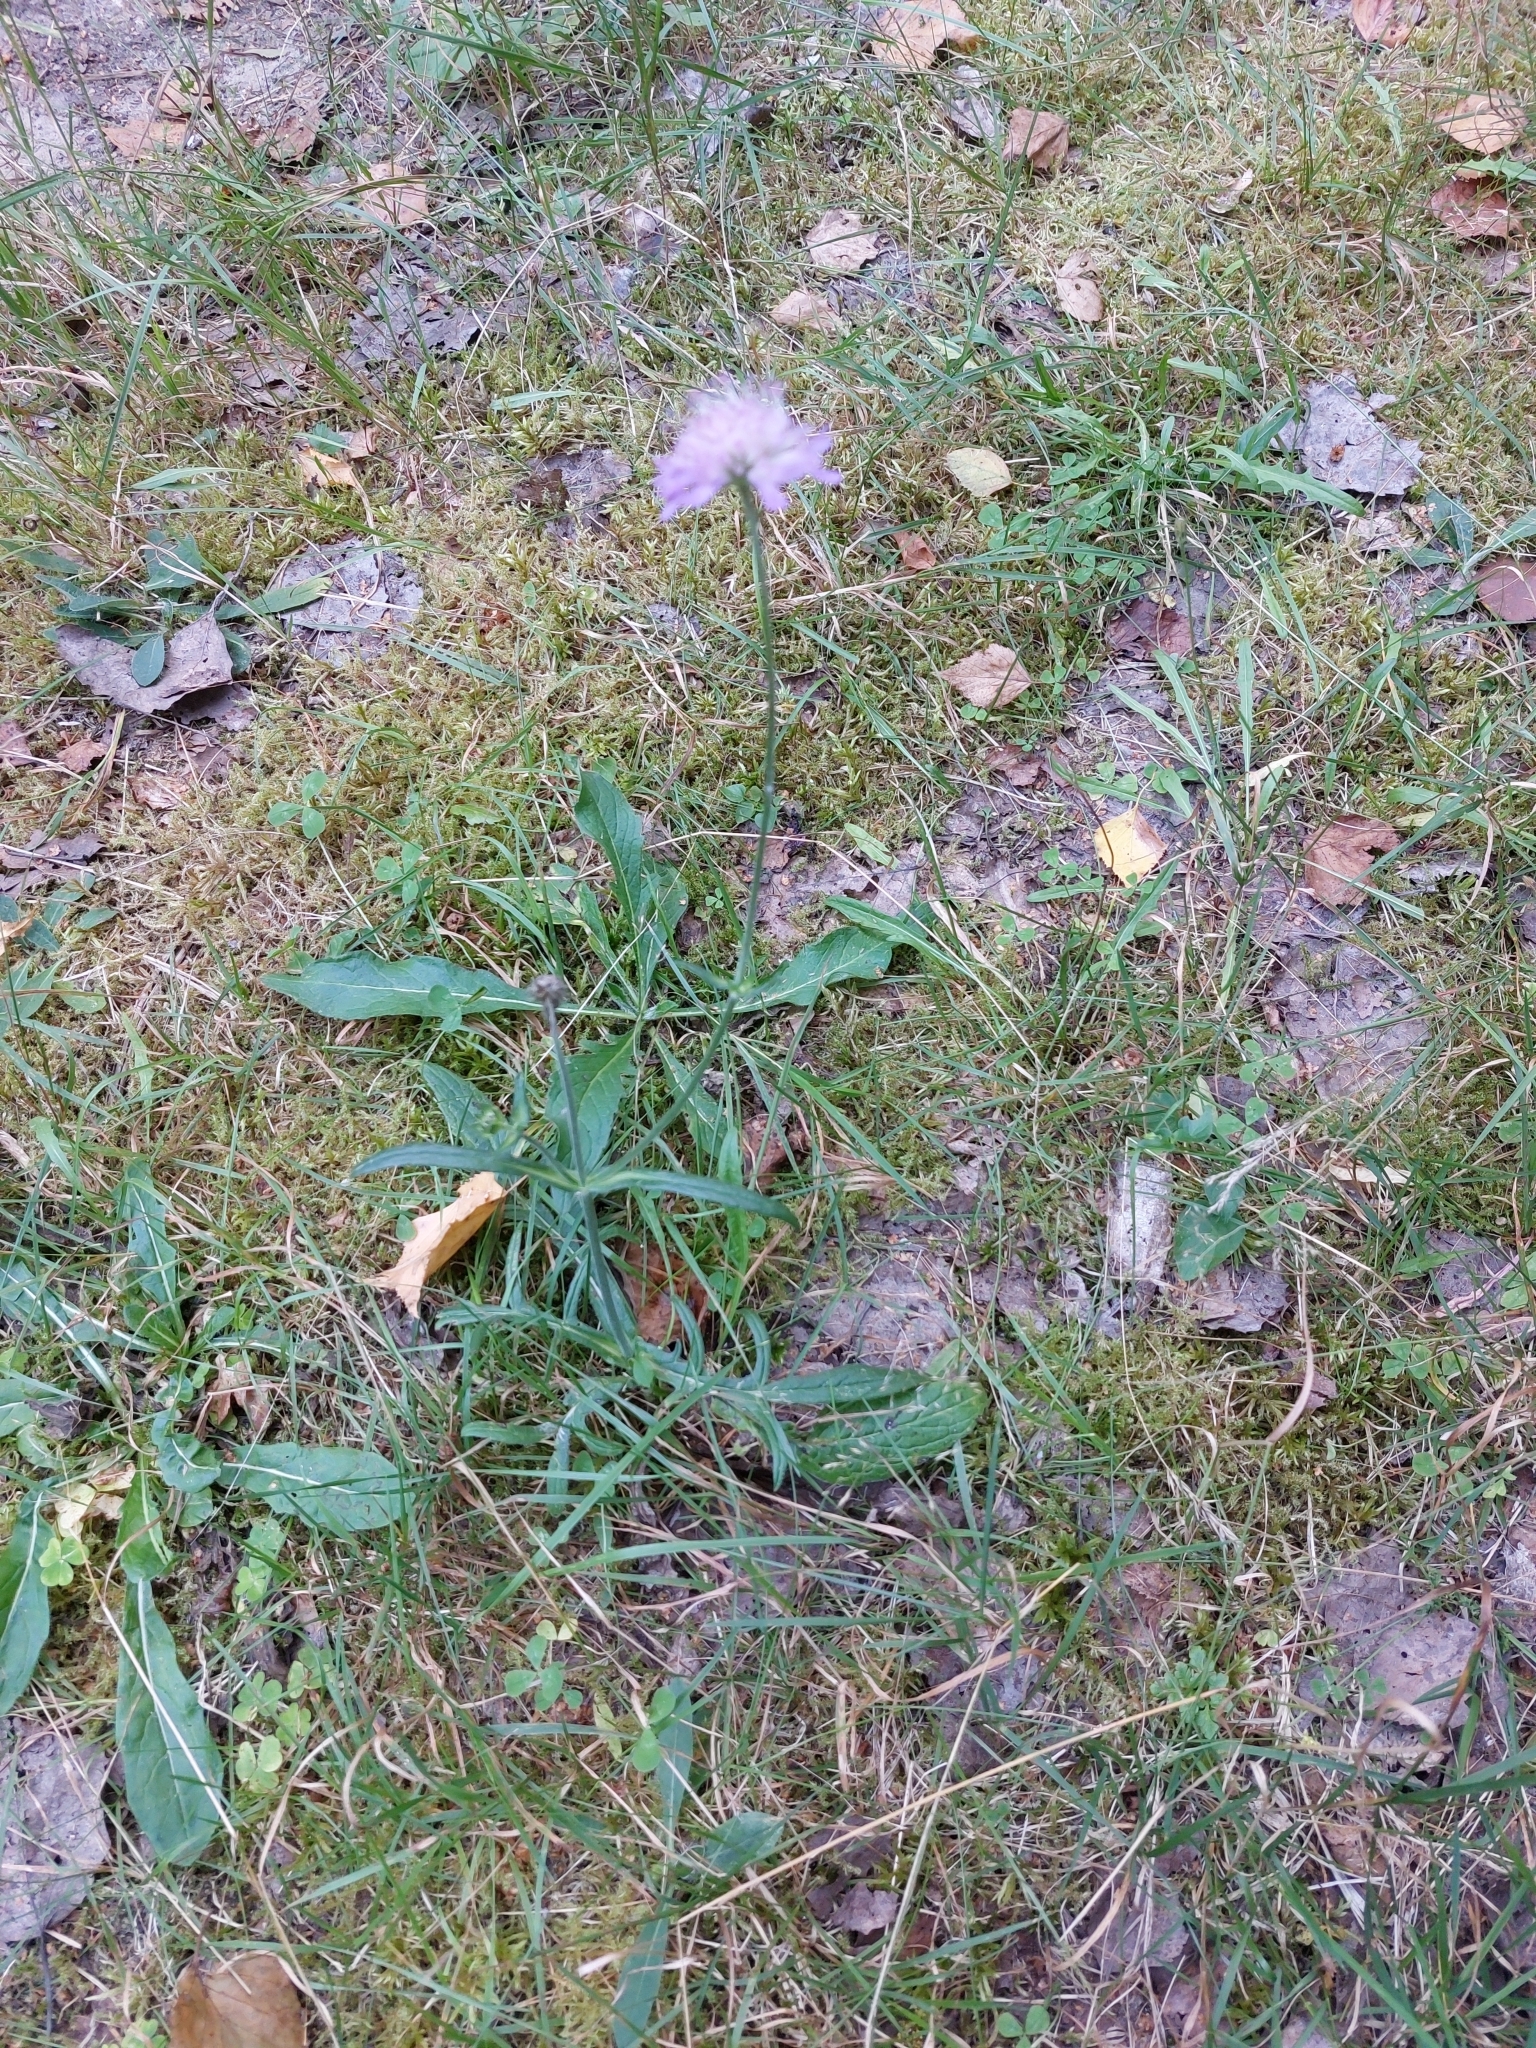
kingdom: Plantae
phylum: Tracheophyta
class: Magnoliopsida
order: Dipsacales
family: Caprifoliaceae
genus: Knautia
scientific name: Knautia arvensis
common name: Field scabiosa
